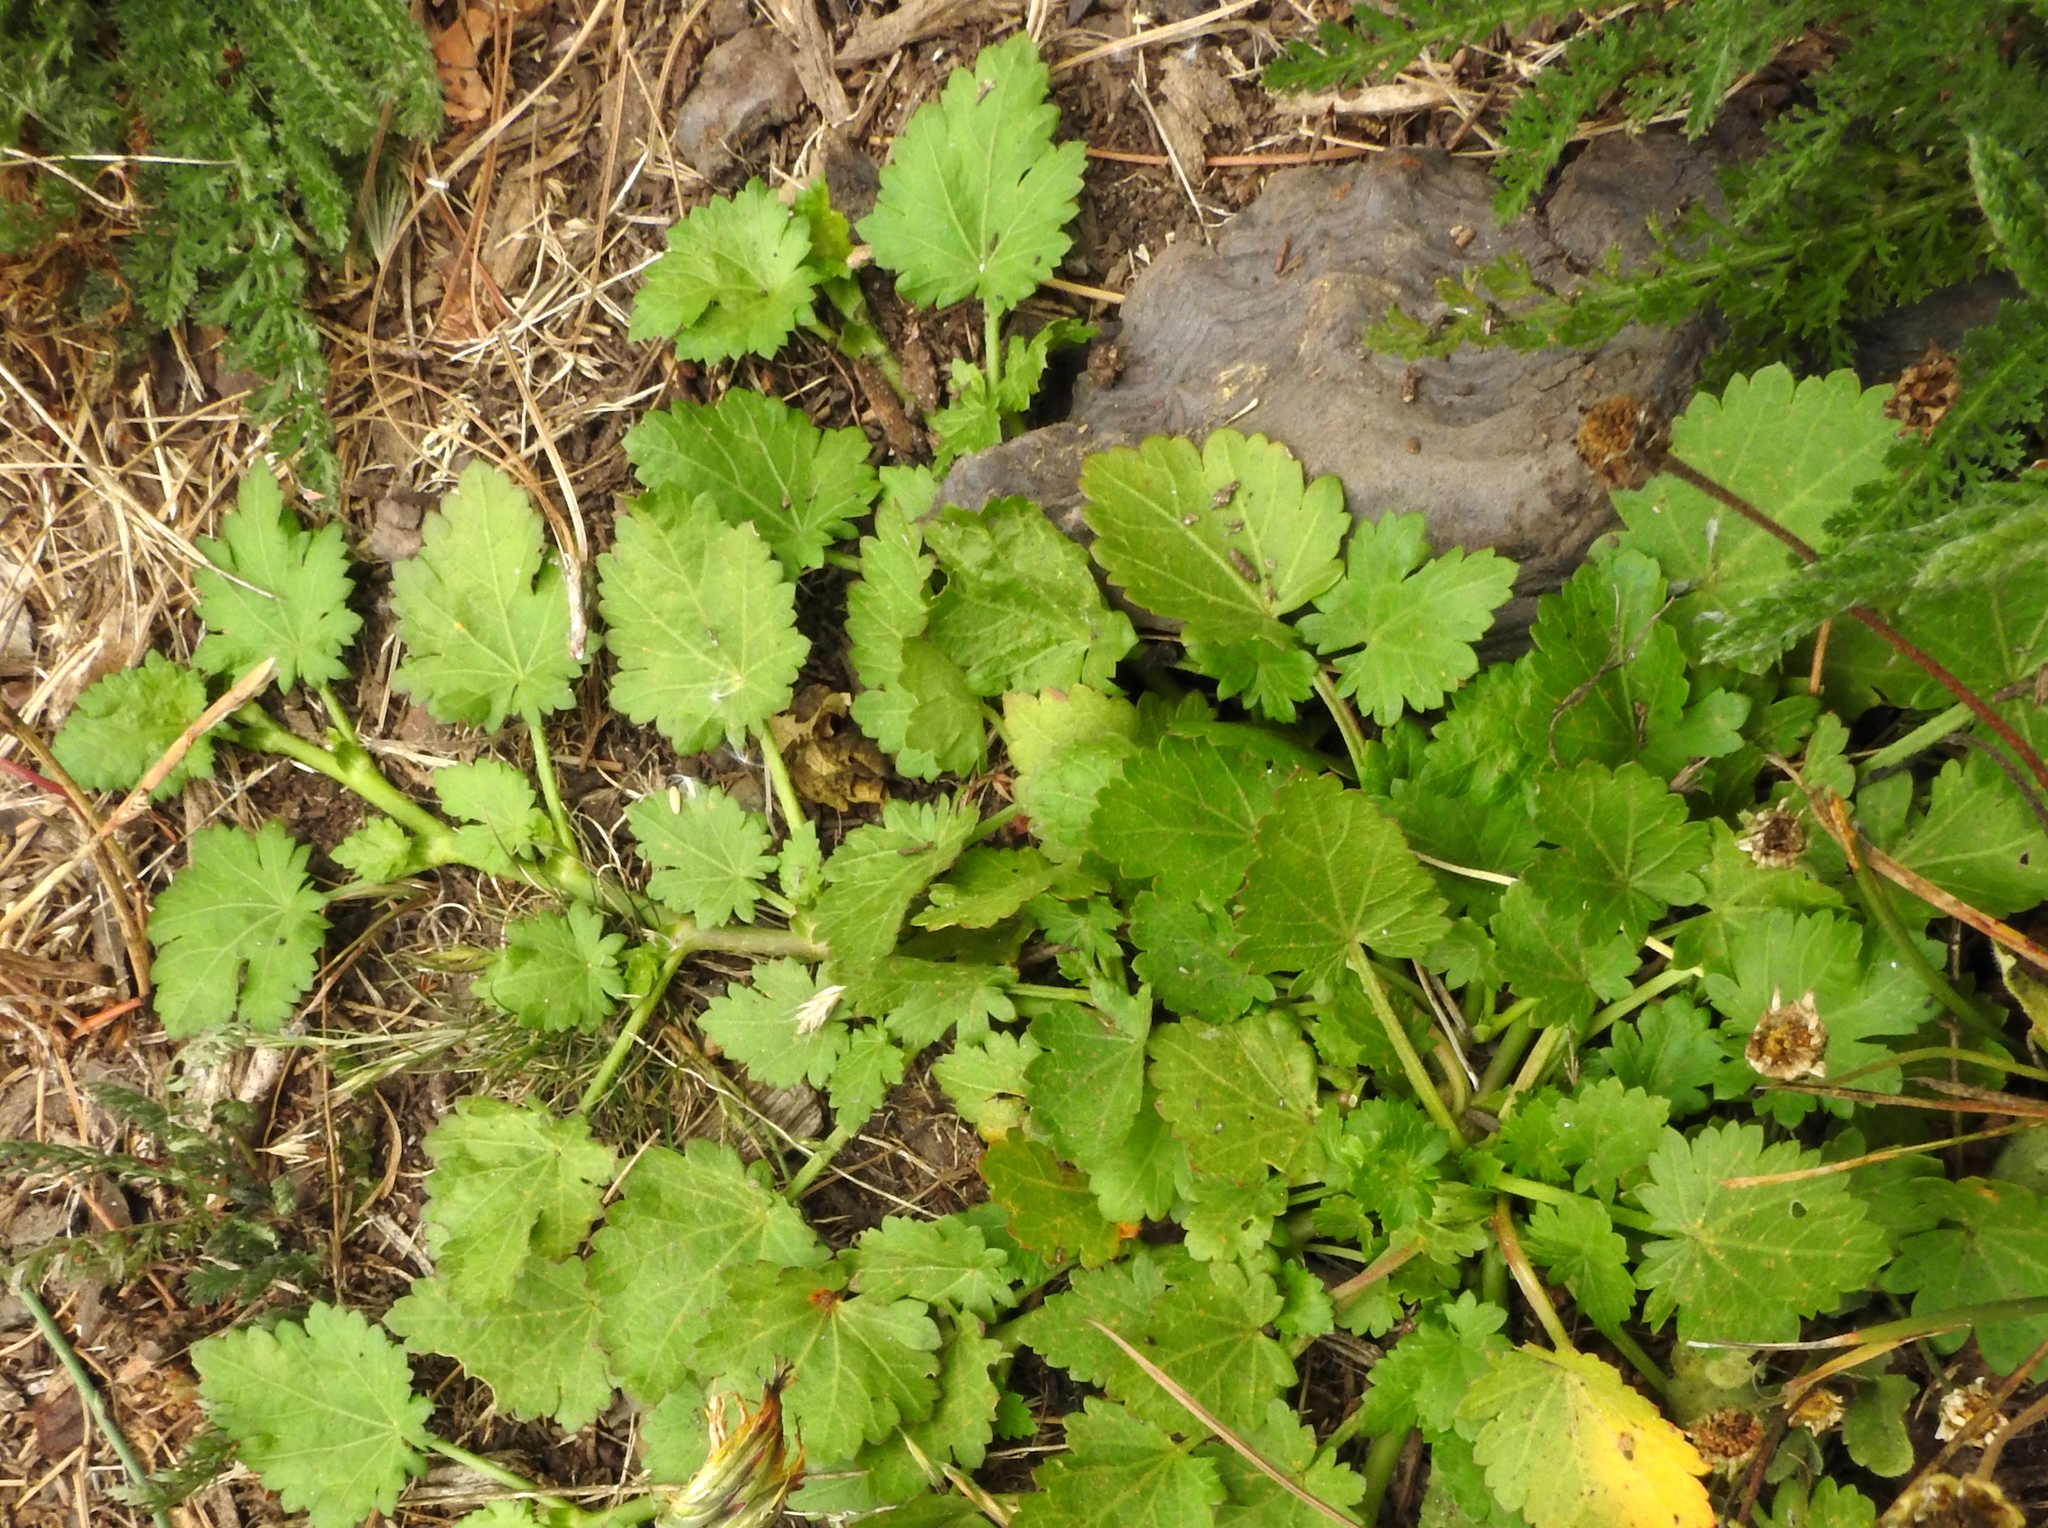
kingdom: Plantae
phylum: Tracheophyta
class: Magnoliopsida
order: Malvales
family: Malvaceae
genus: Modiola
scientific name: Modiola caroliniana
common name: Carolina bristlemallow
